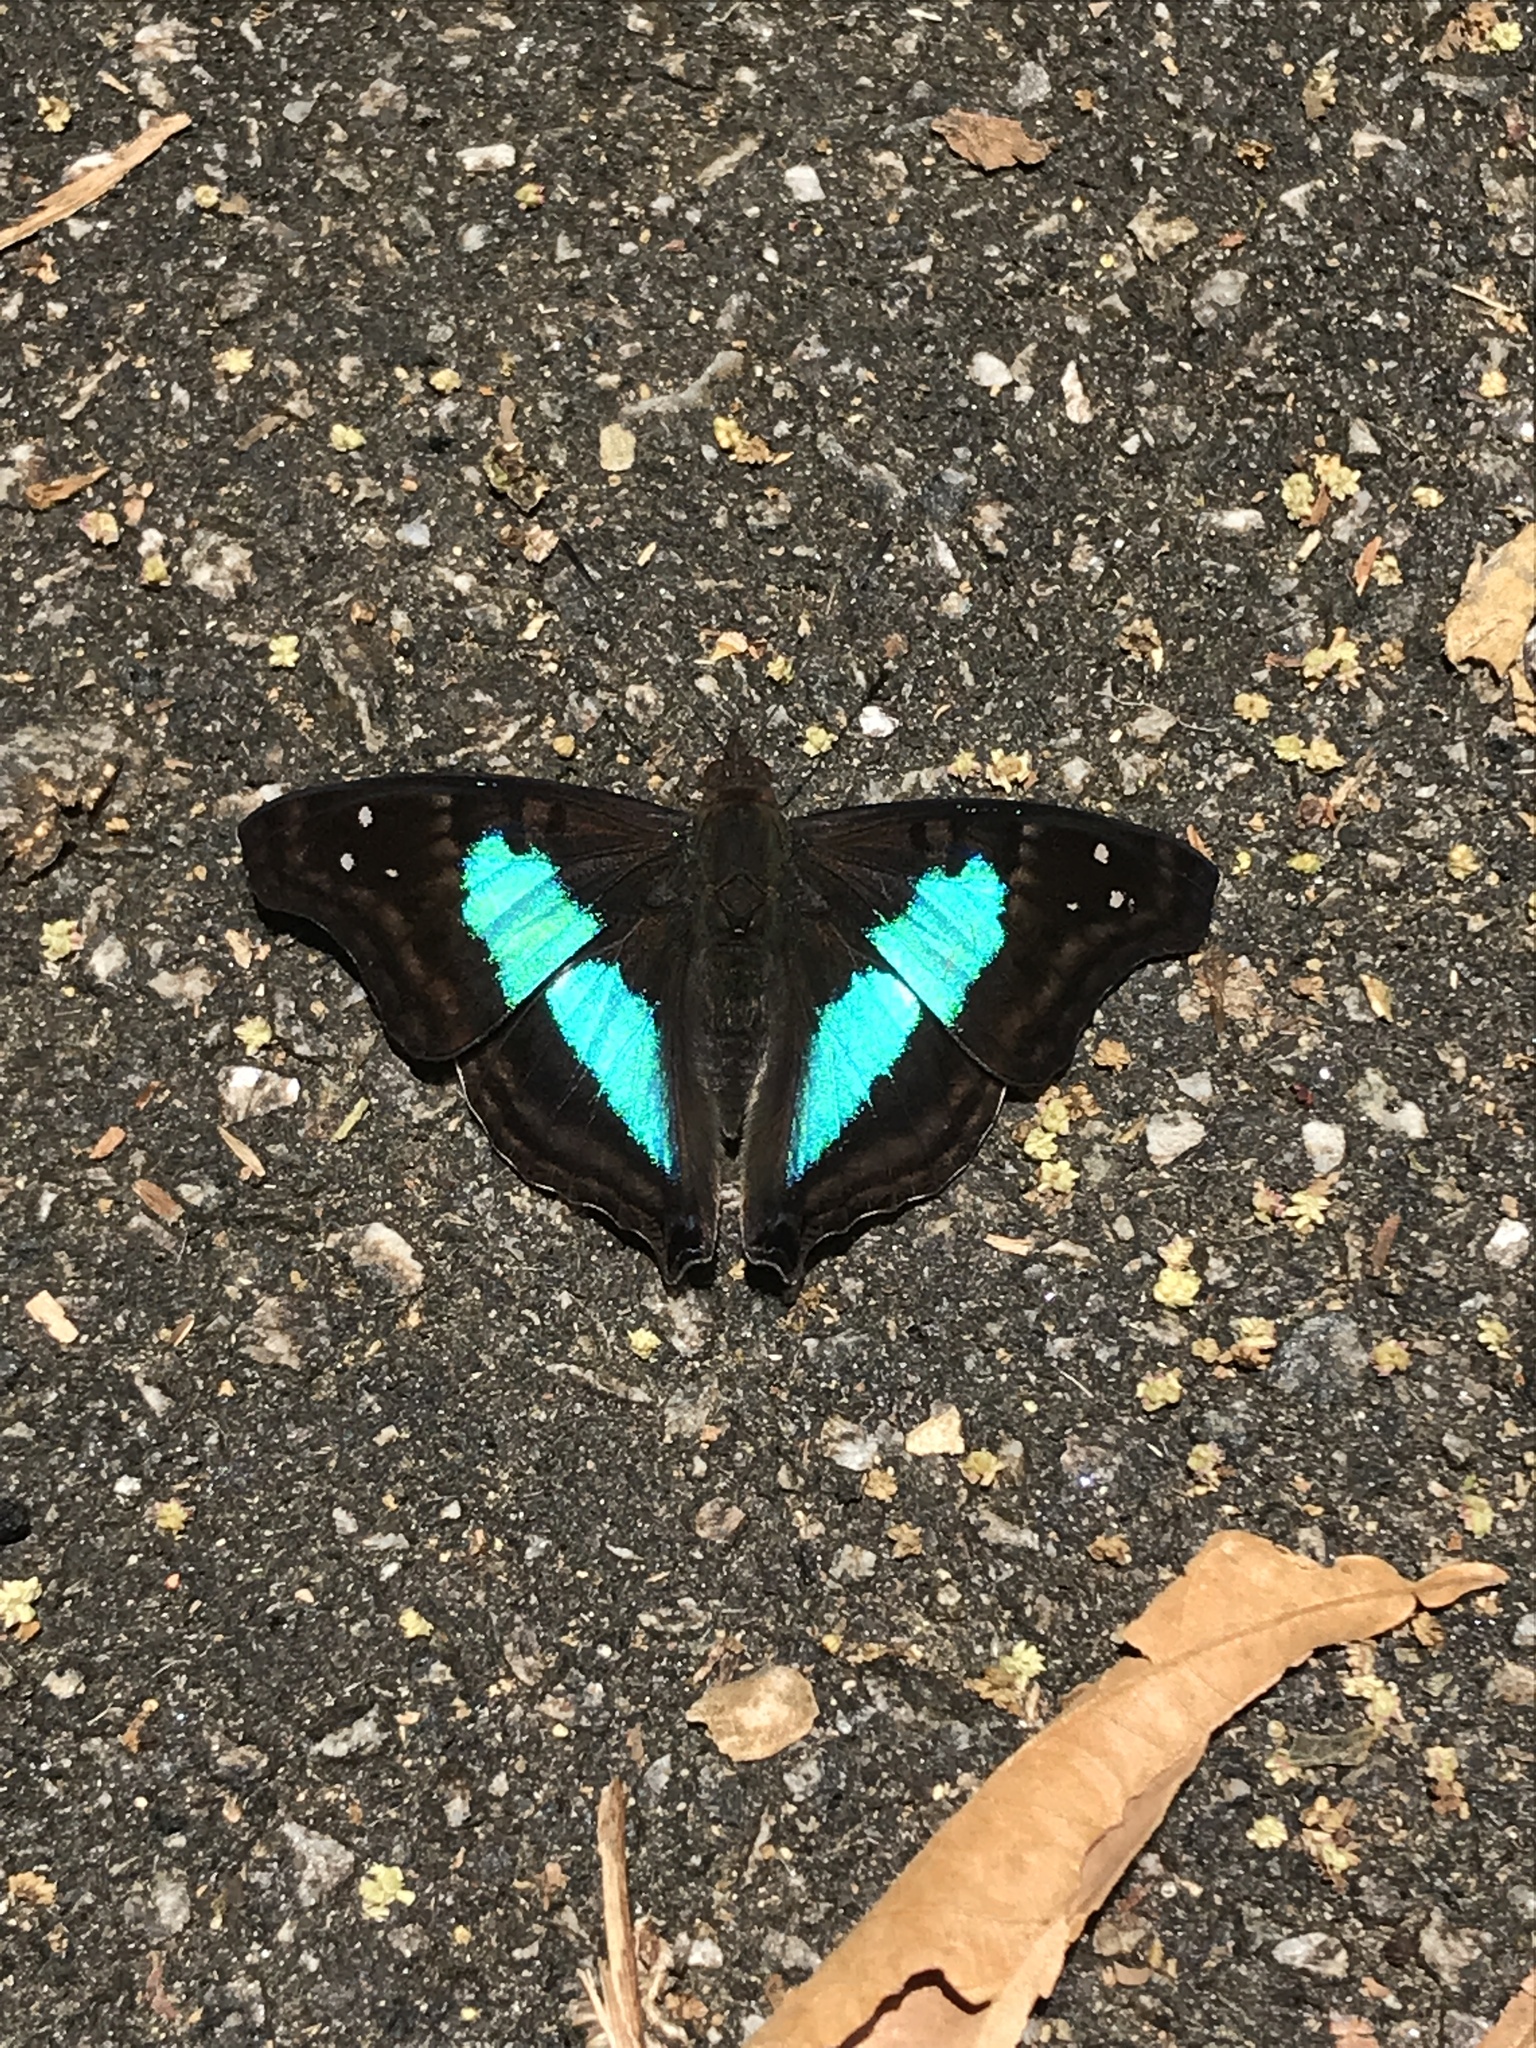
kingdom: Animalia
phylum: Arthropoda
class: Insecta
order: Lepidoptera
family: Nymphalidae
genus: Doxocopa
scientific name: Doxocopa laurentia
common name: Turquoise emperor
